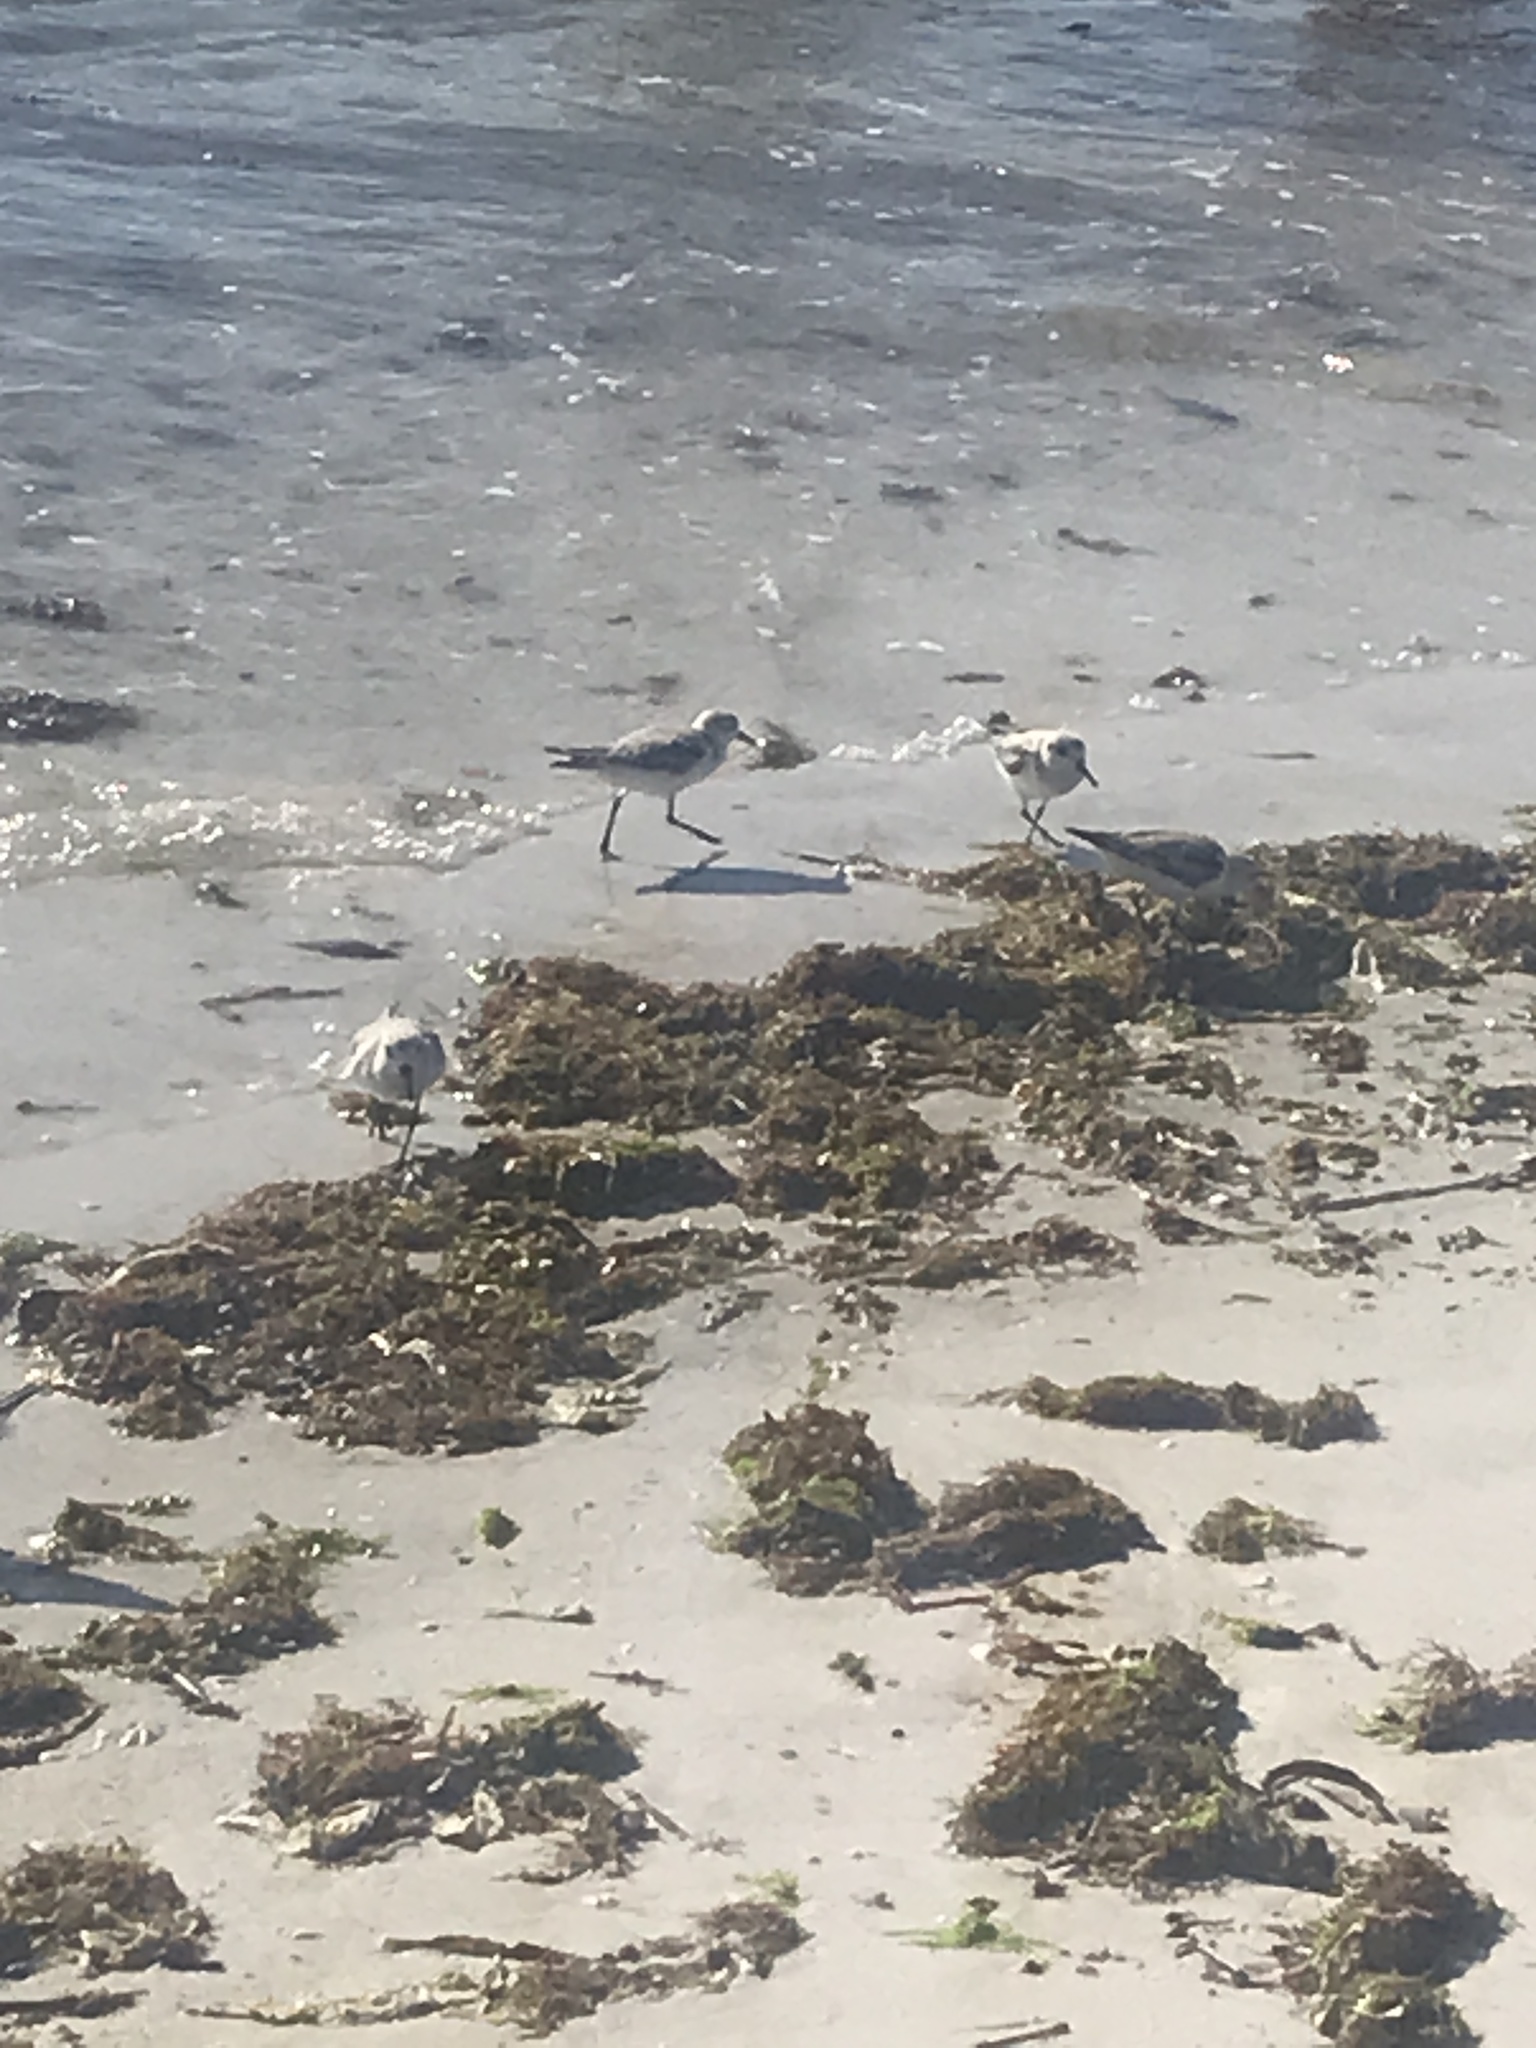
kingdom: Animalia
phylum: Chordata
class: Aves
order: Charadriiformes
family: Scolopacidae
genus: Calidris
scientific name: Calidris alba
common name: Sanderling
